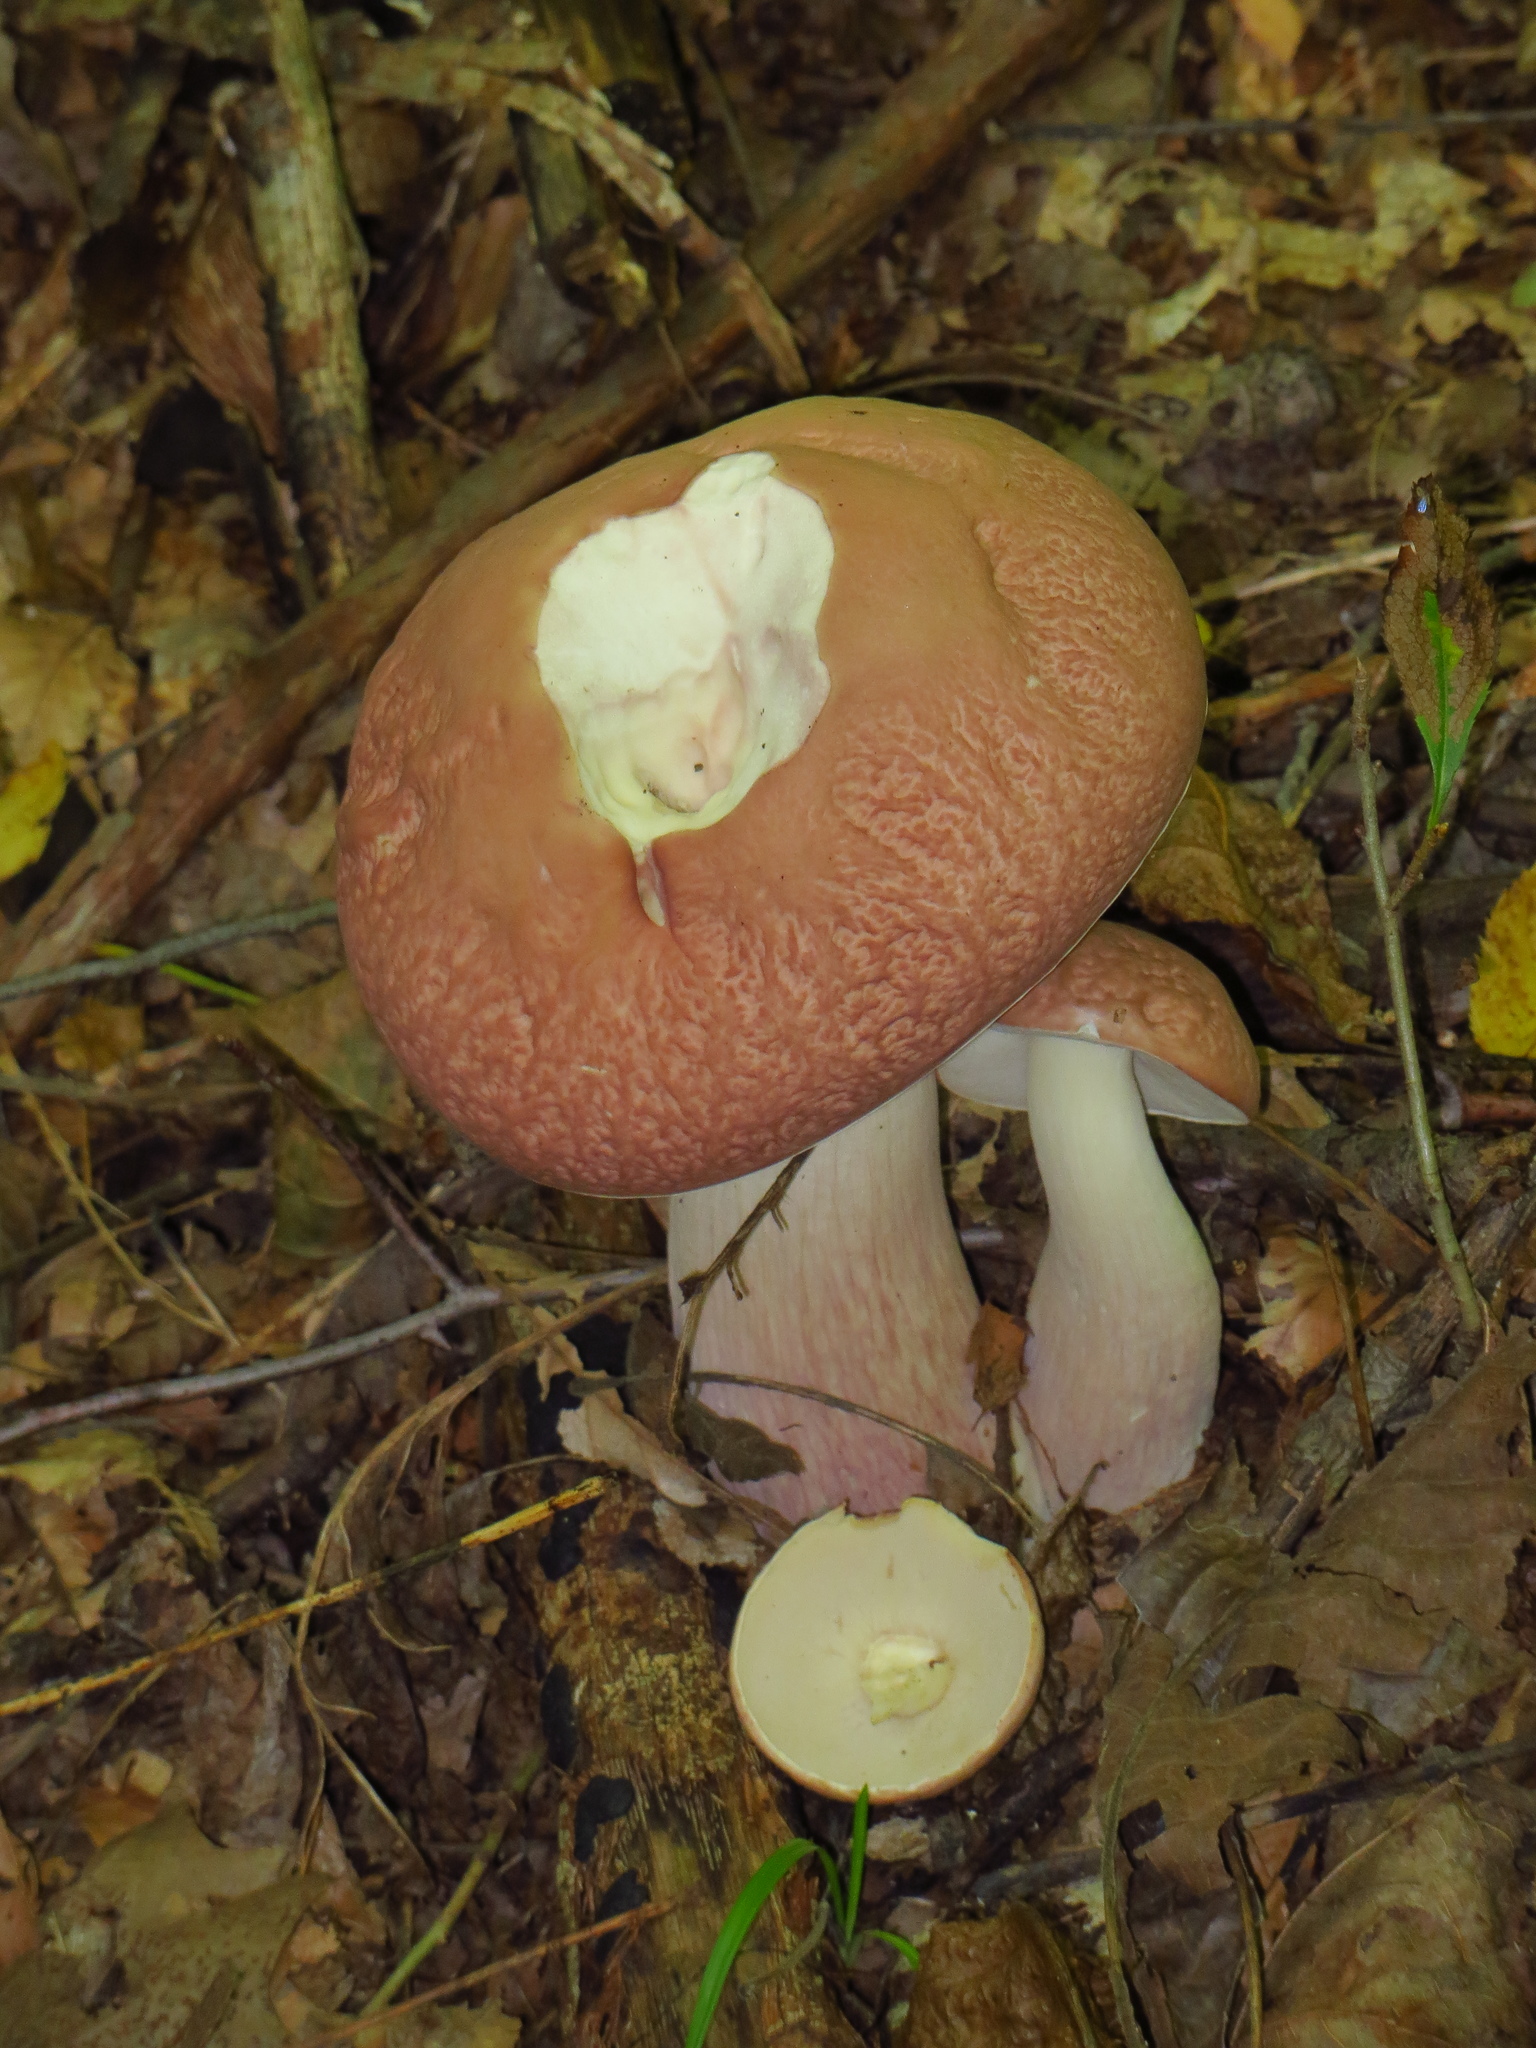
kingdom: Fungi
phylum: Basidiomycota
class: Agaricomycetes
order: Boletales
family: Boletaceae
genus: Xanthoconium
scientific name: Xanthoconium separans
